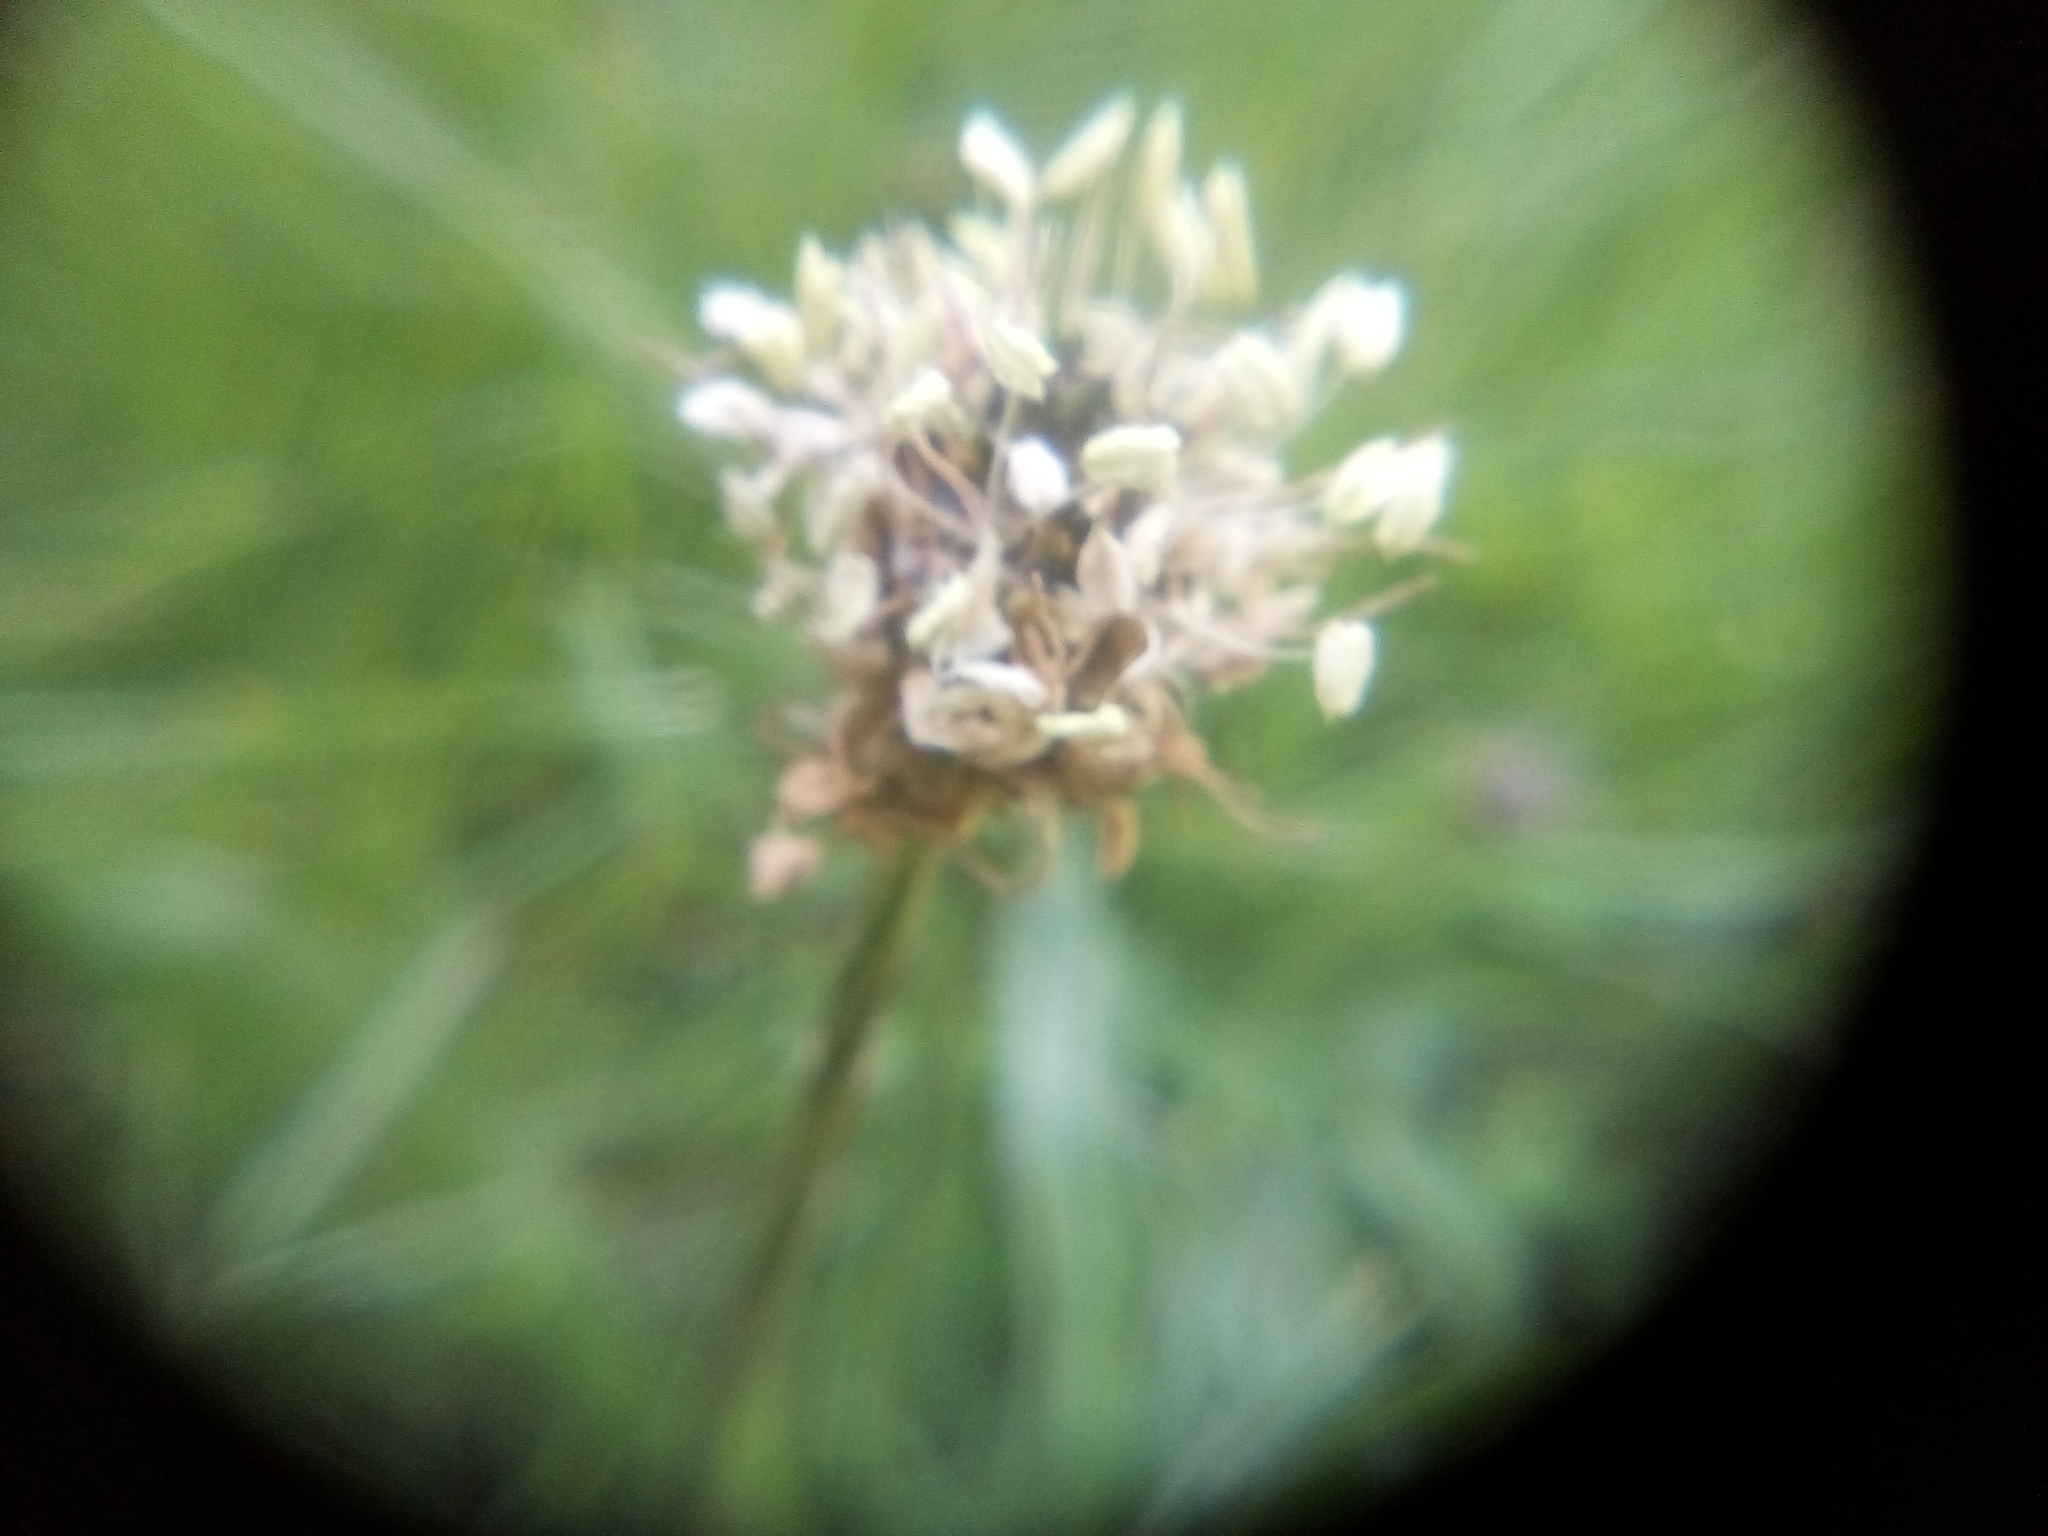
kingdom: Plantae
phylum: Tracheophyta
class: Magnoliopsida
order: Lamiales
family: Plantaginaceae
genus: Plantago
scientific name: Plantago lanceolata
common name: Ribwort plantain
